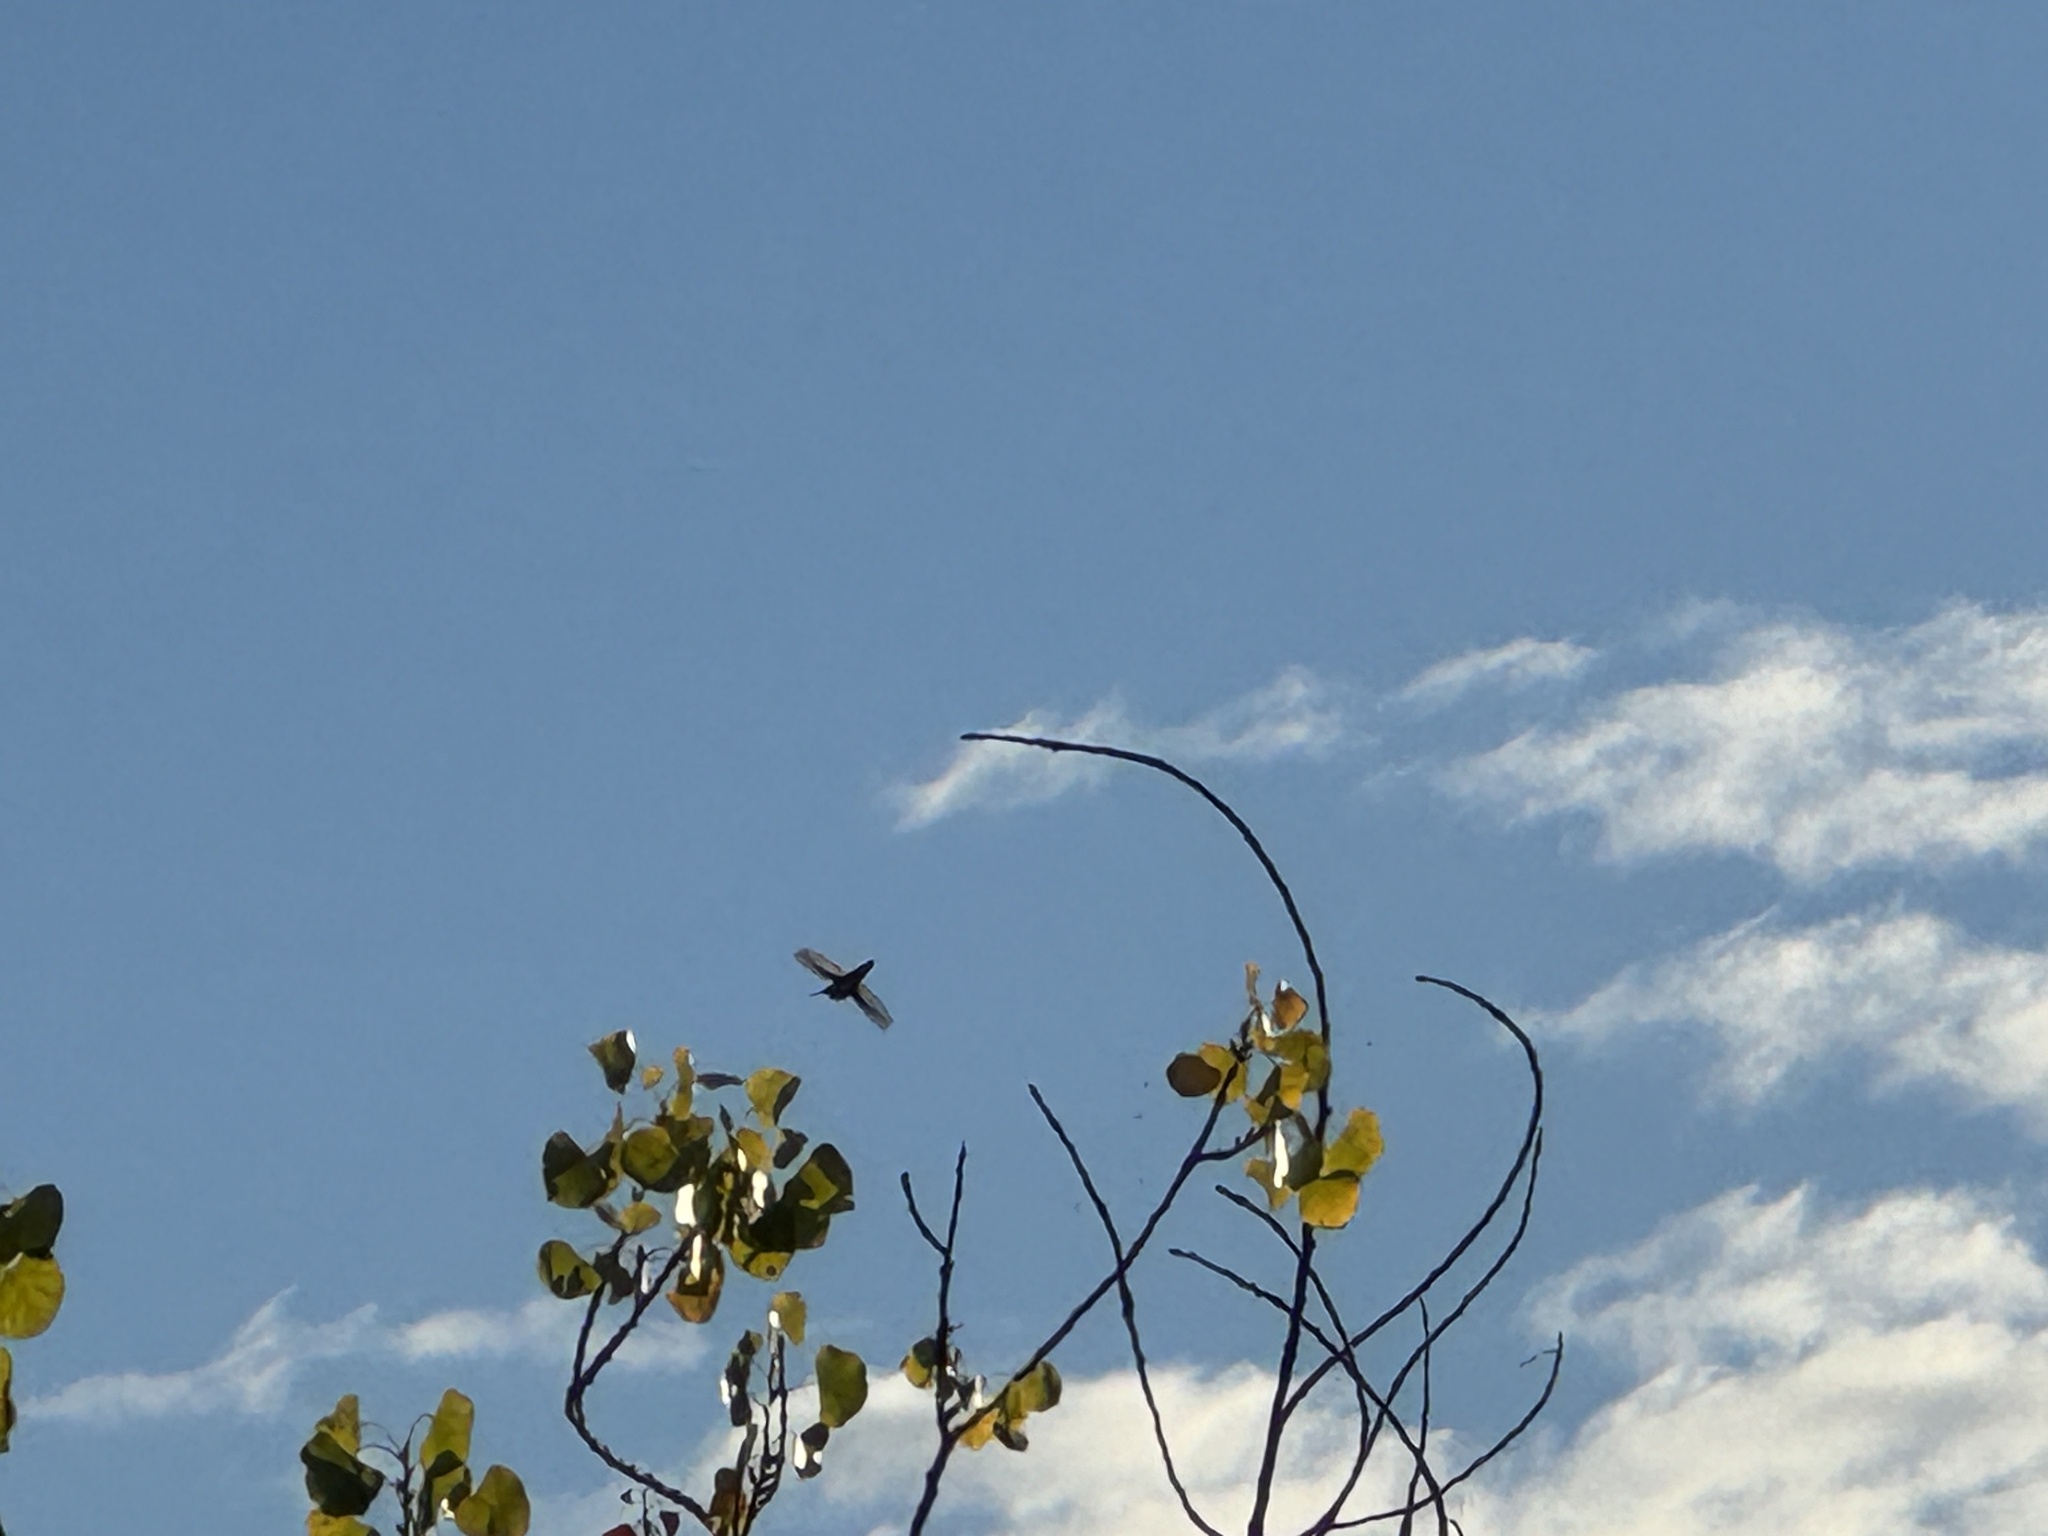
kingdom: Animalia
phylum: Chordata
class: Aves
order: Apodiformes
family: Trochilidae
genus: Calypte
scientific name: Calypte anna
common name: Anna's hummingbird
